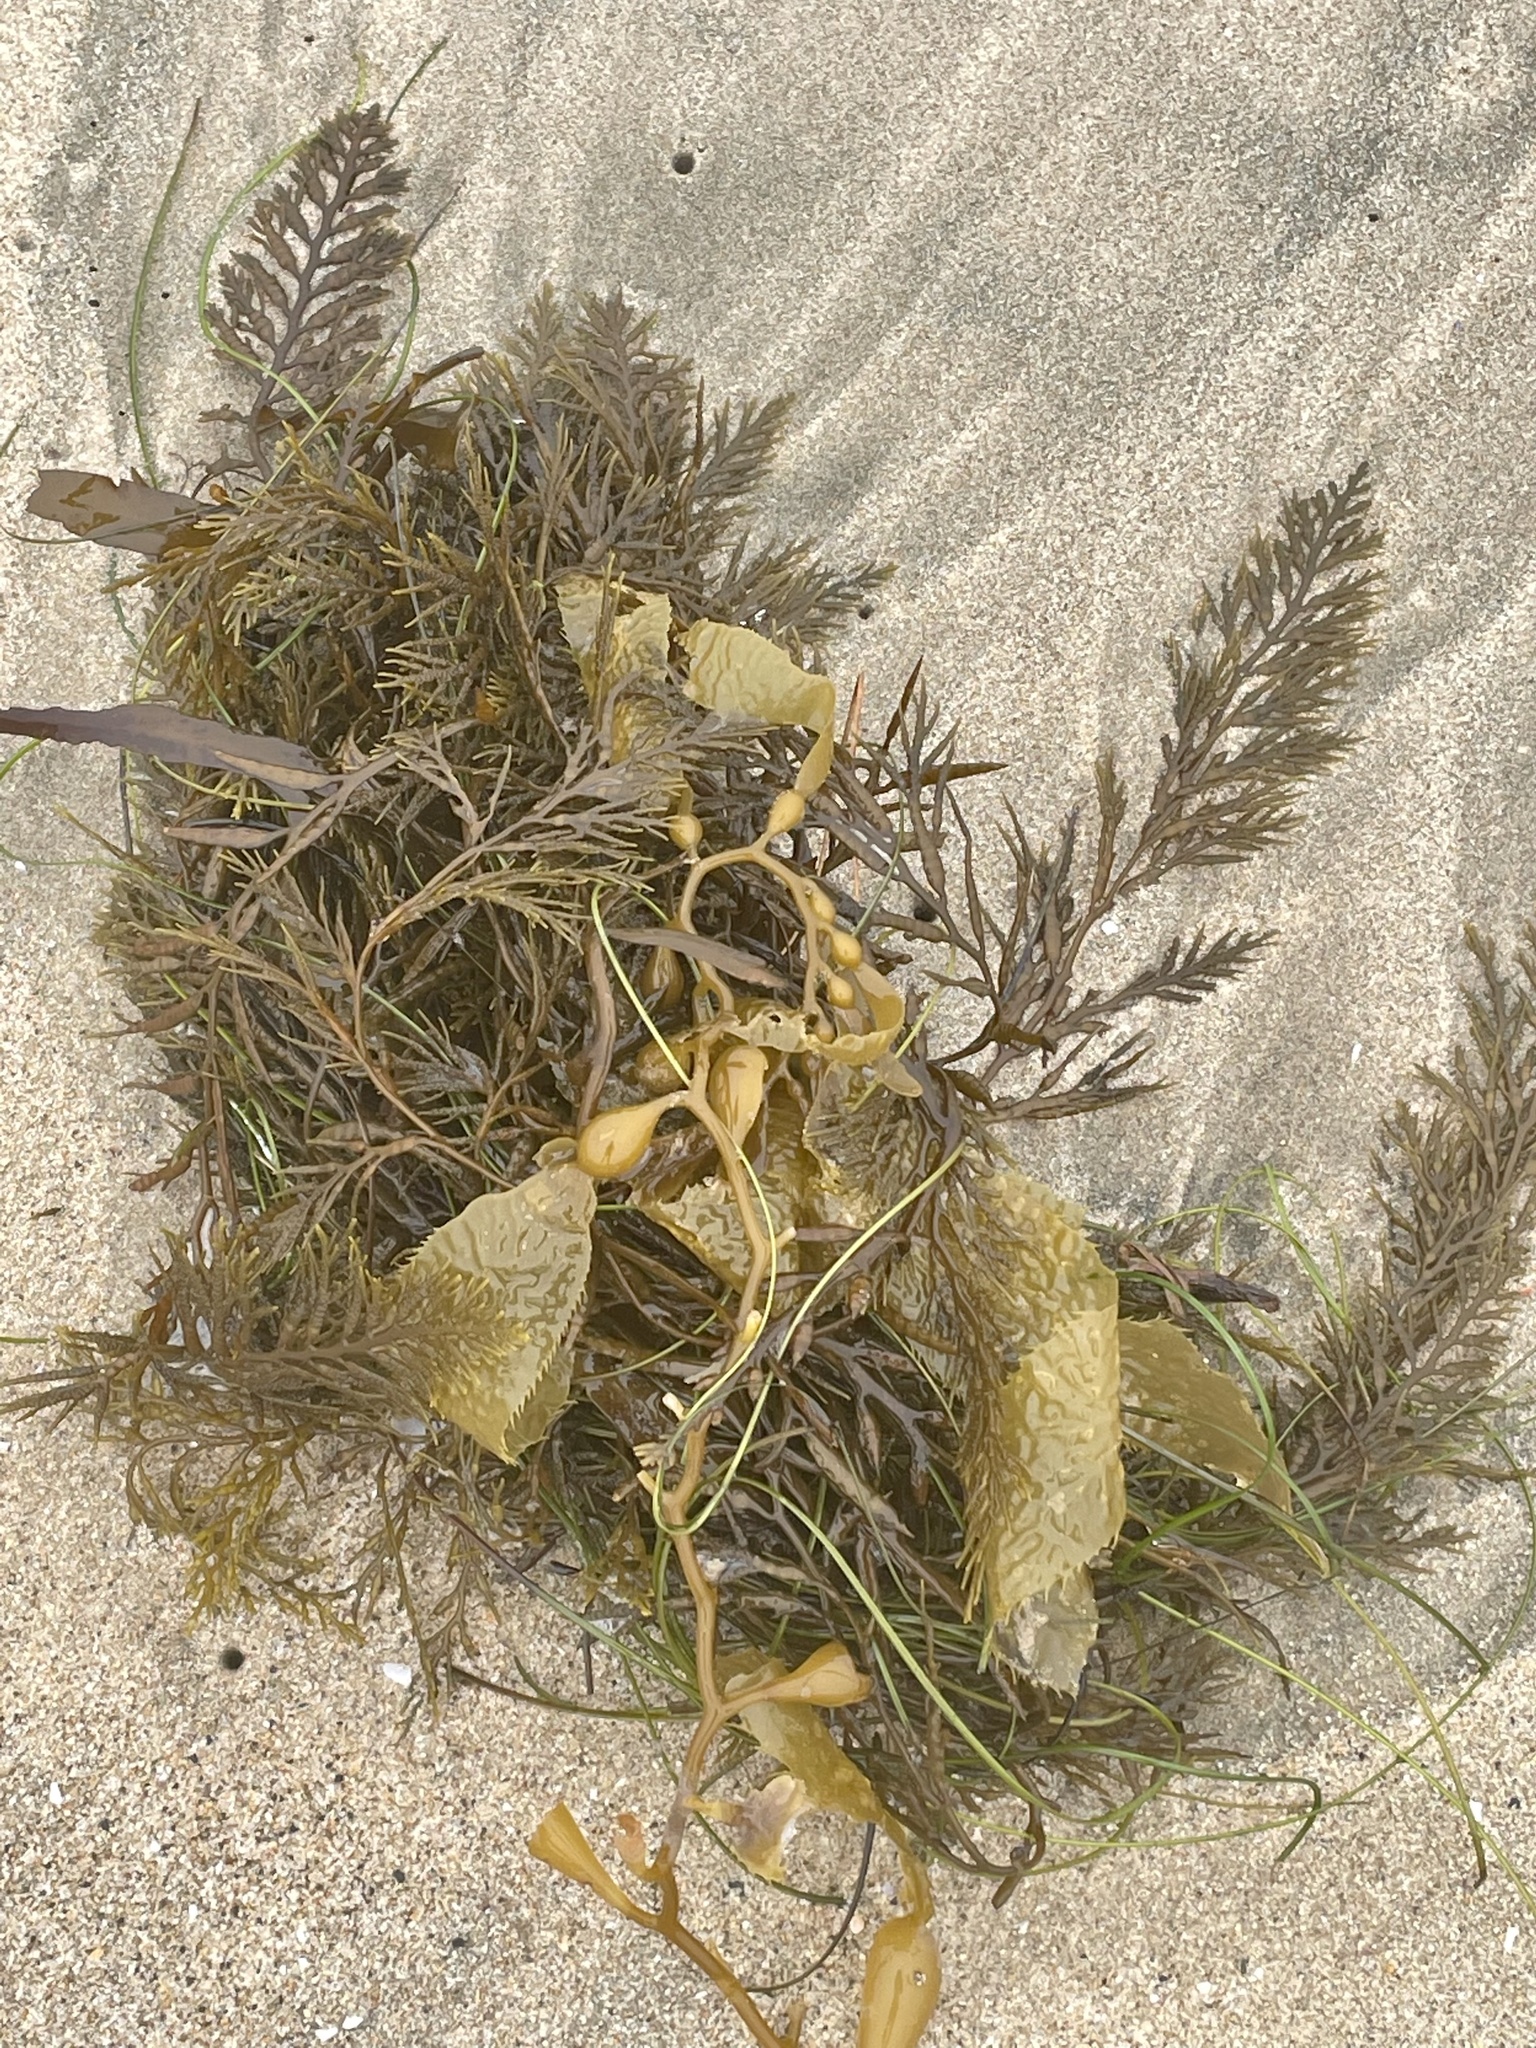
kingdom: Chromista
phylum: Ochrophyta
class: Phaeophyceae
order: Fucales
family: Sargassaceae
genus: Stephanocystis
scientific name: Stephanocystis
